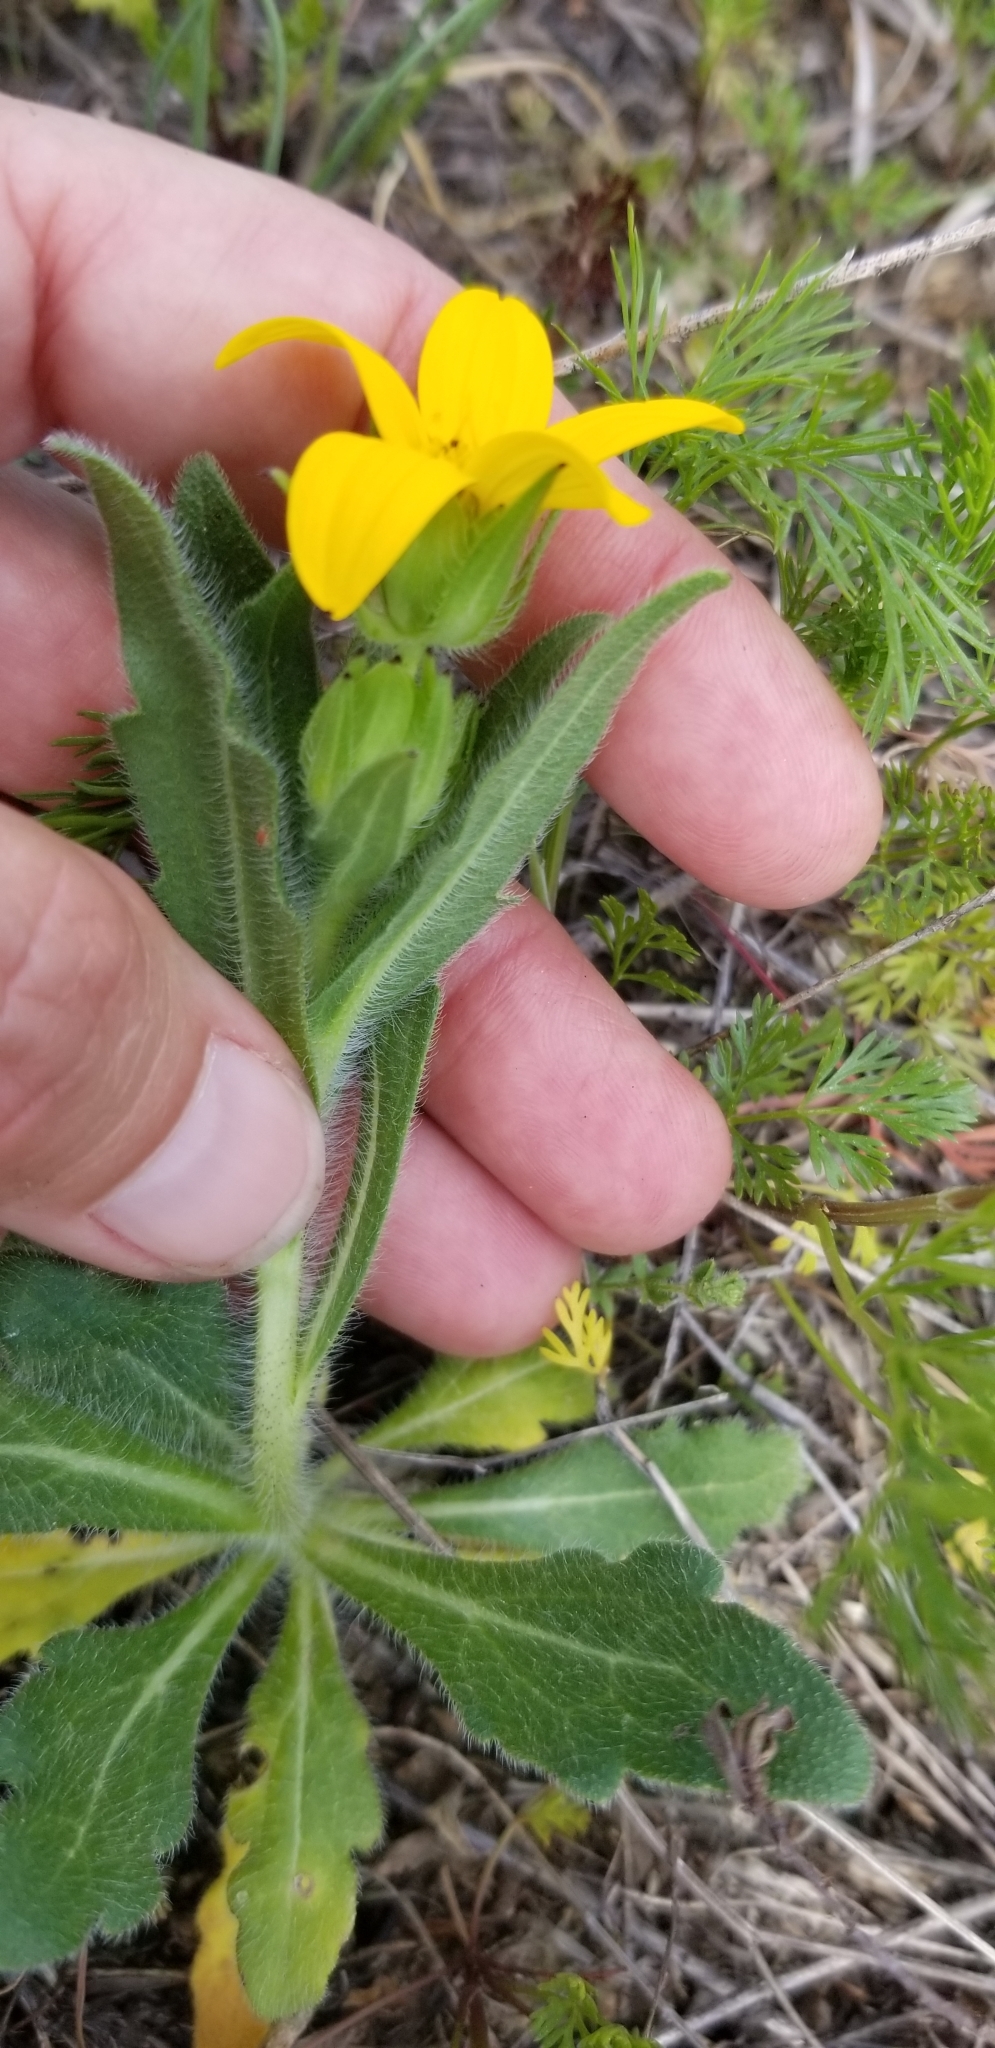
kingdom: Plantae
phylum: Tracheophyta
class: Magnoliopsida
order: Asterales
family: Asteraceae
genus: Lindheimera
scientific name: Lindheimera texana
